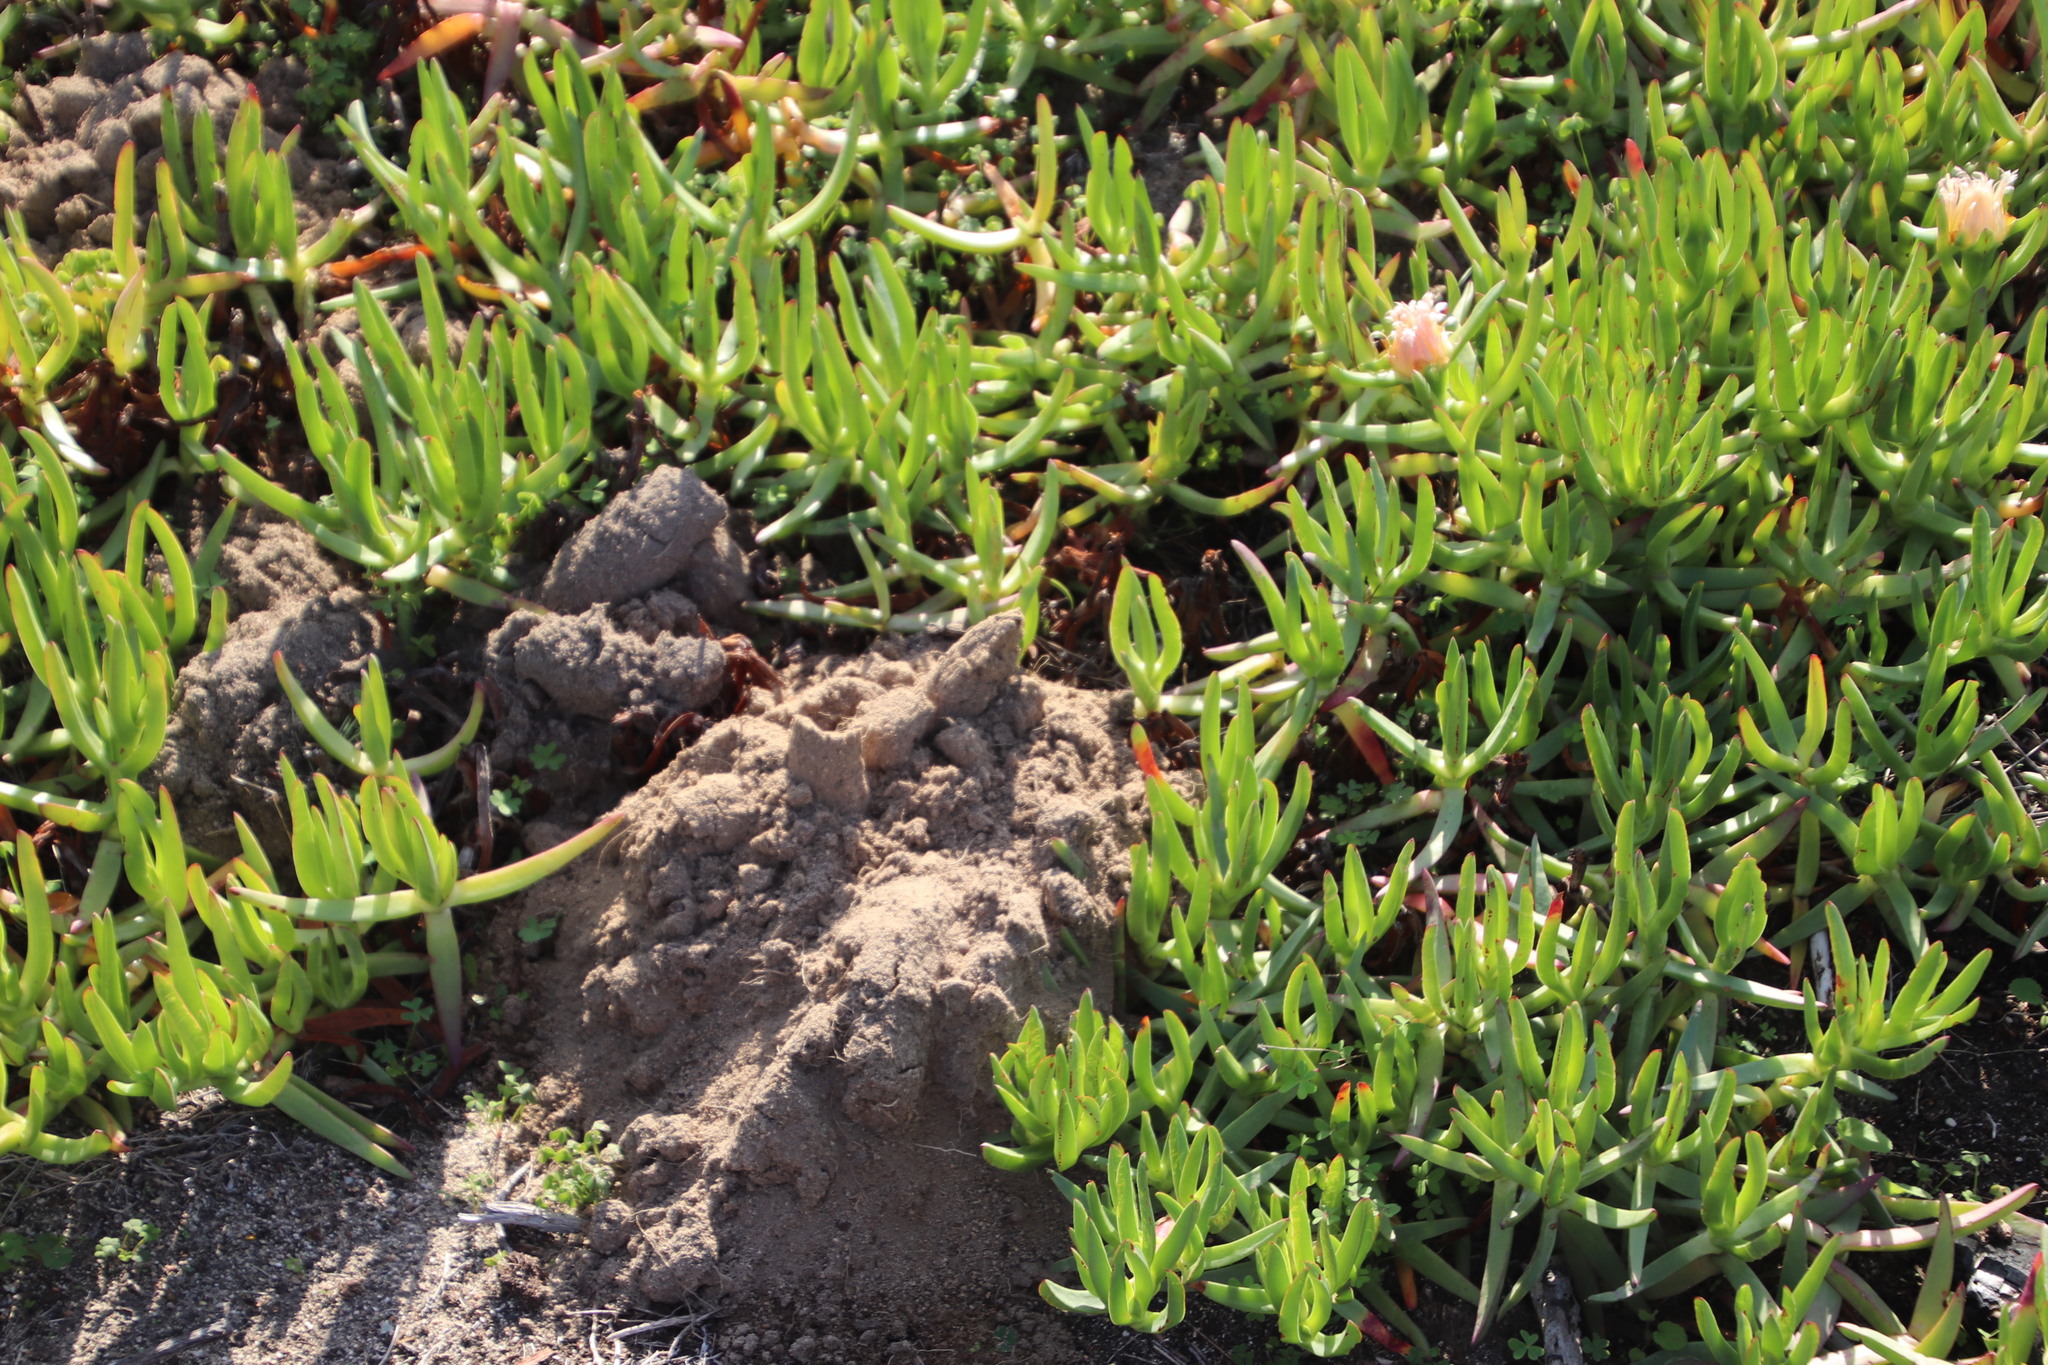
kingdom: Animalia
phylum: Chordata
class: Mammalia
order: Rodentia
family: Bathyergidae
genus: Bathyergus
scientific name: Bathyergus suillus
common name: Cape dune mole rat
